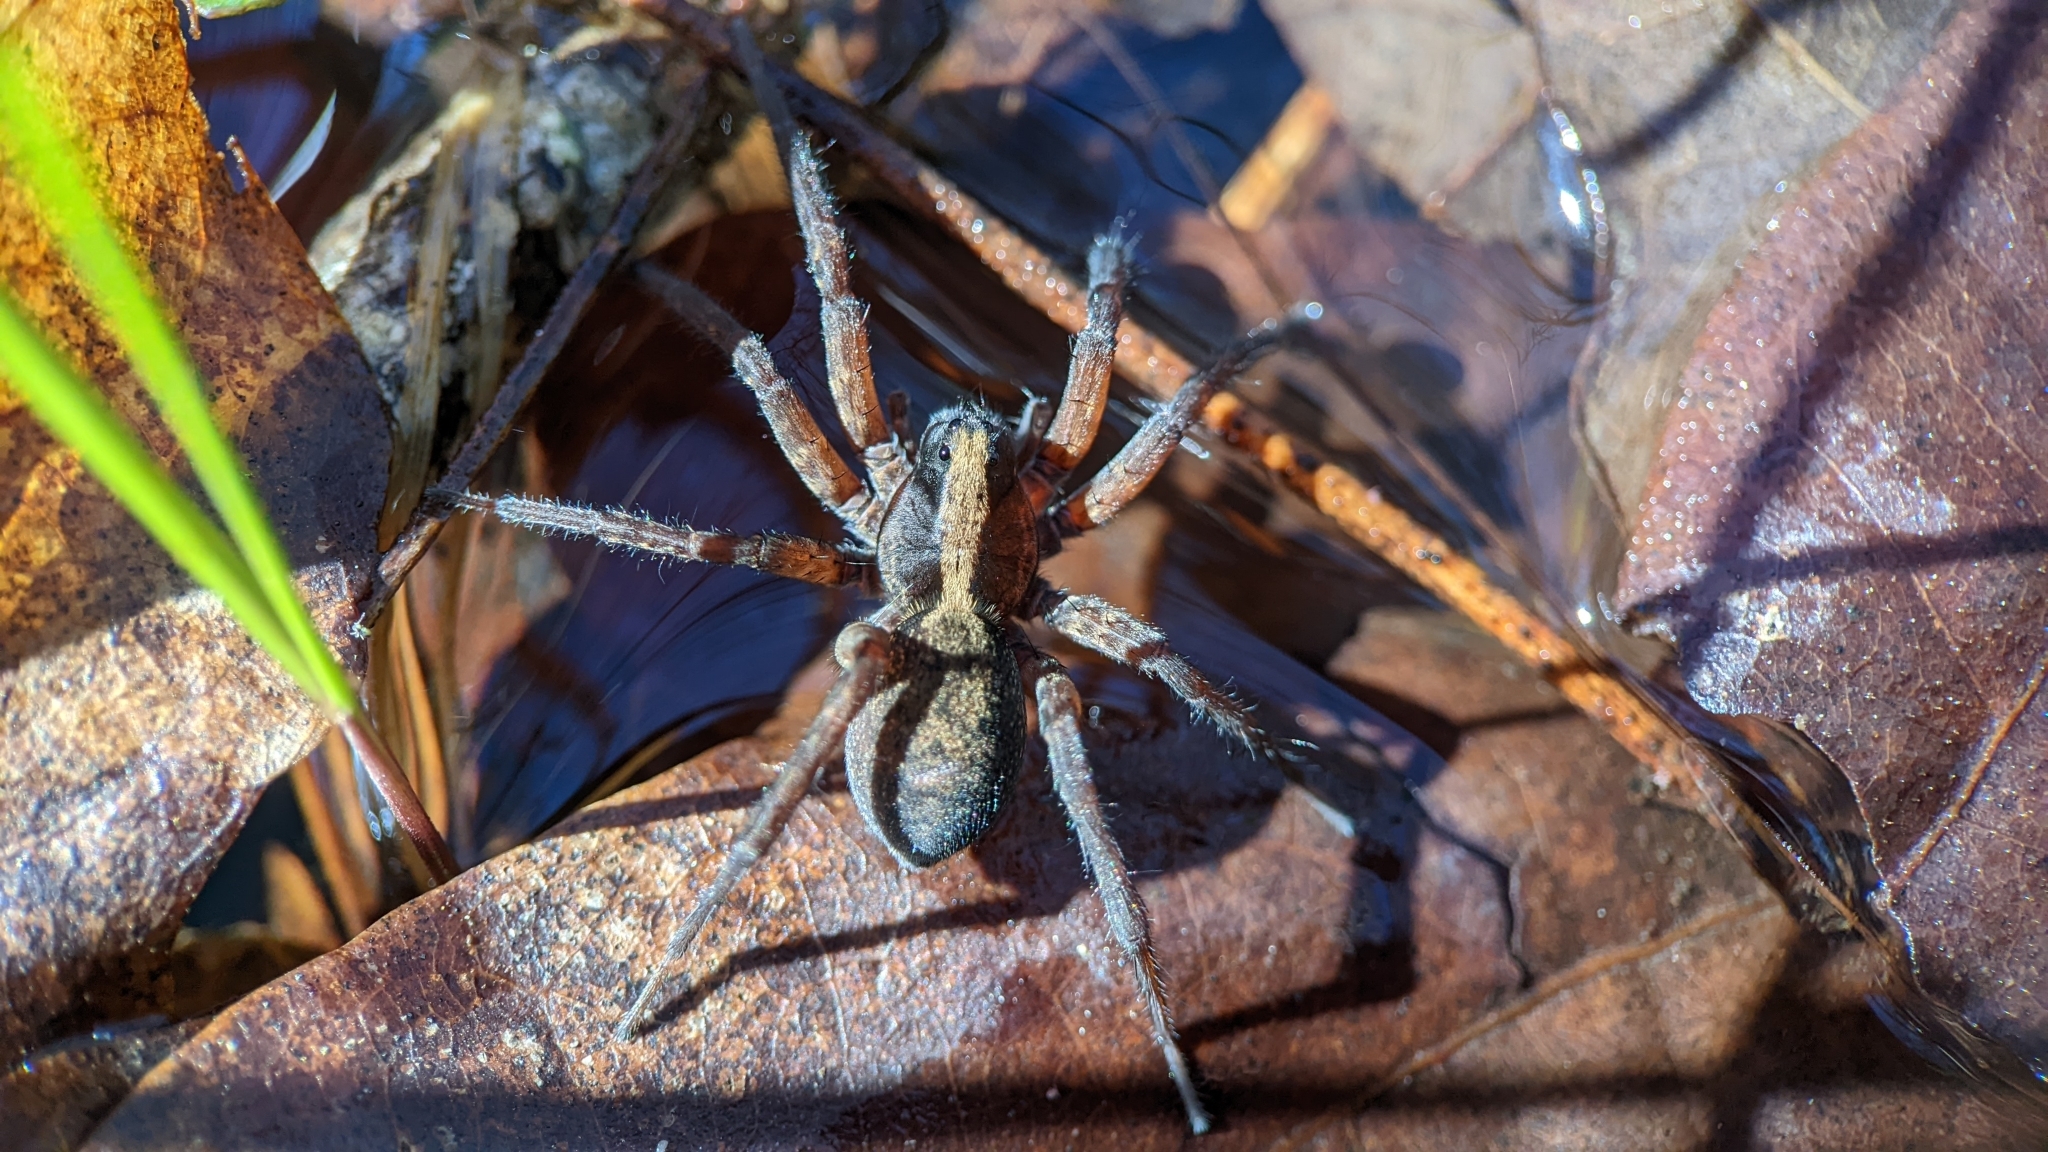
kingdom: Animalia
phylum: Arthropoda
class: Arachnida
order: Araneae
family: Lycosidae
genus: Trochosa
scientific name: Trochosa sepulchralis
